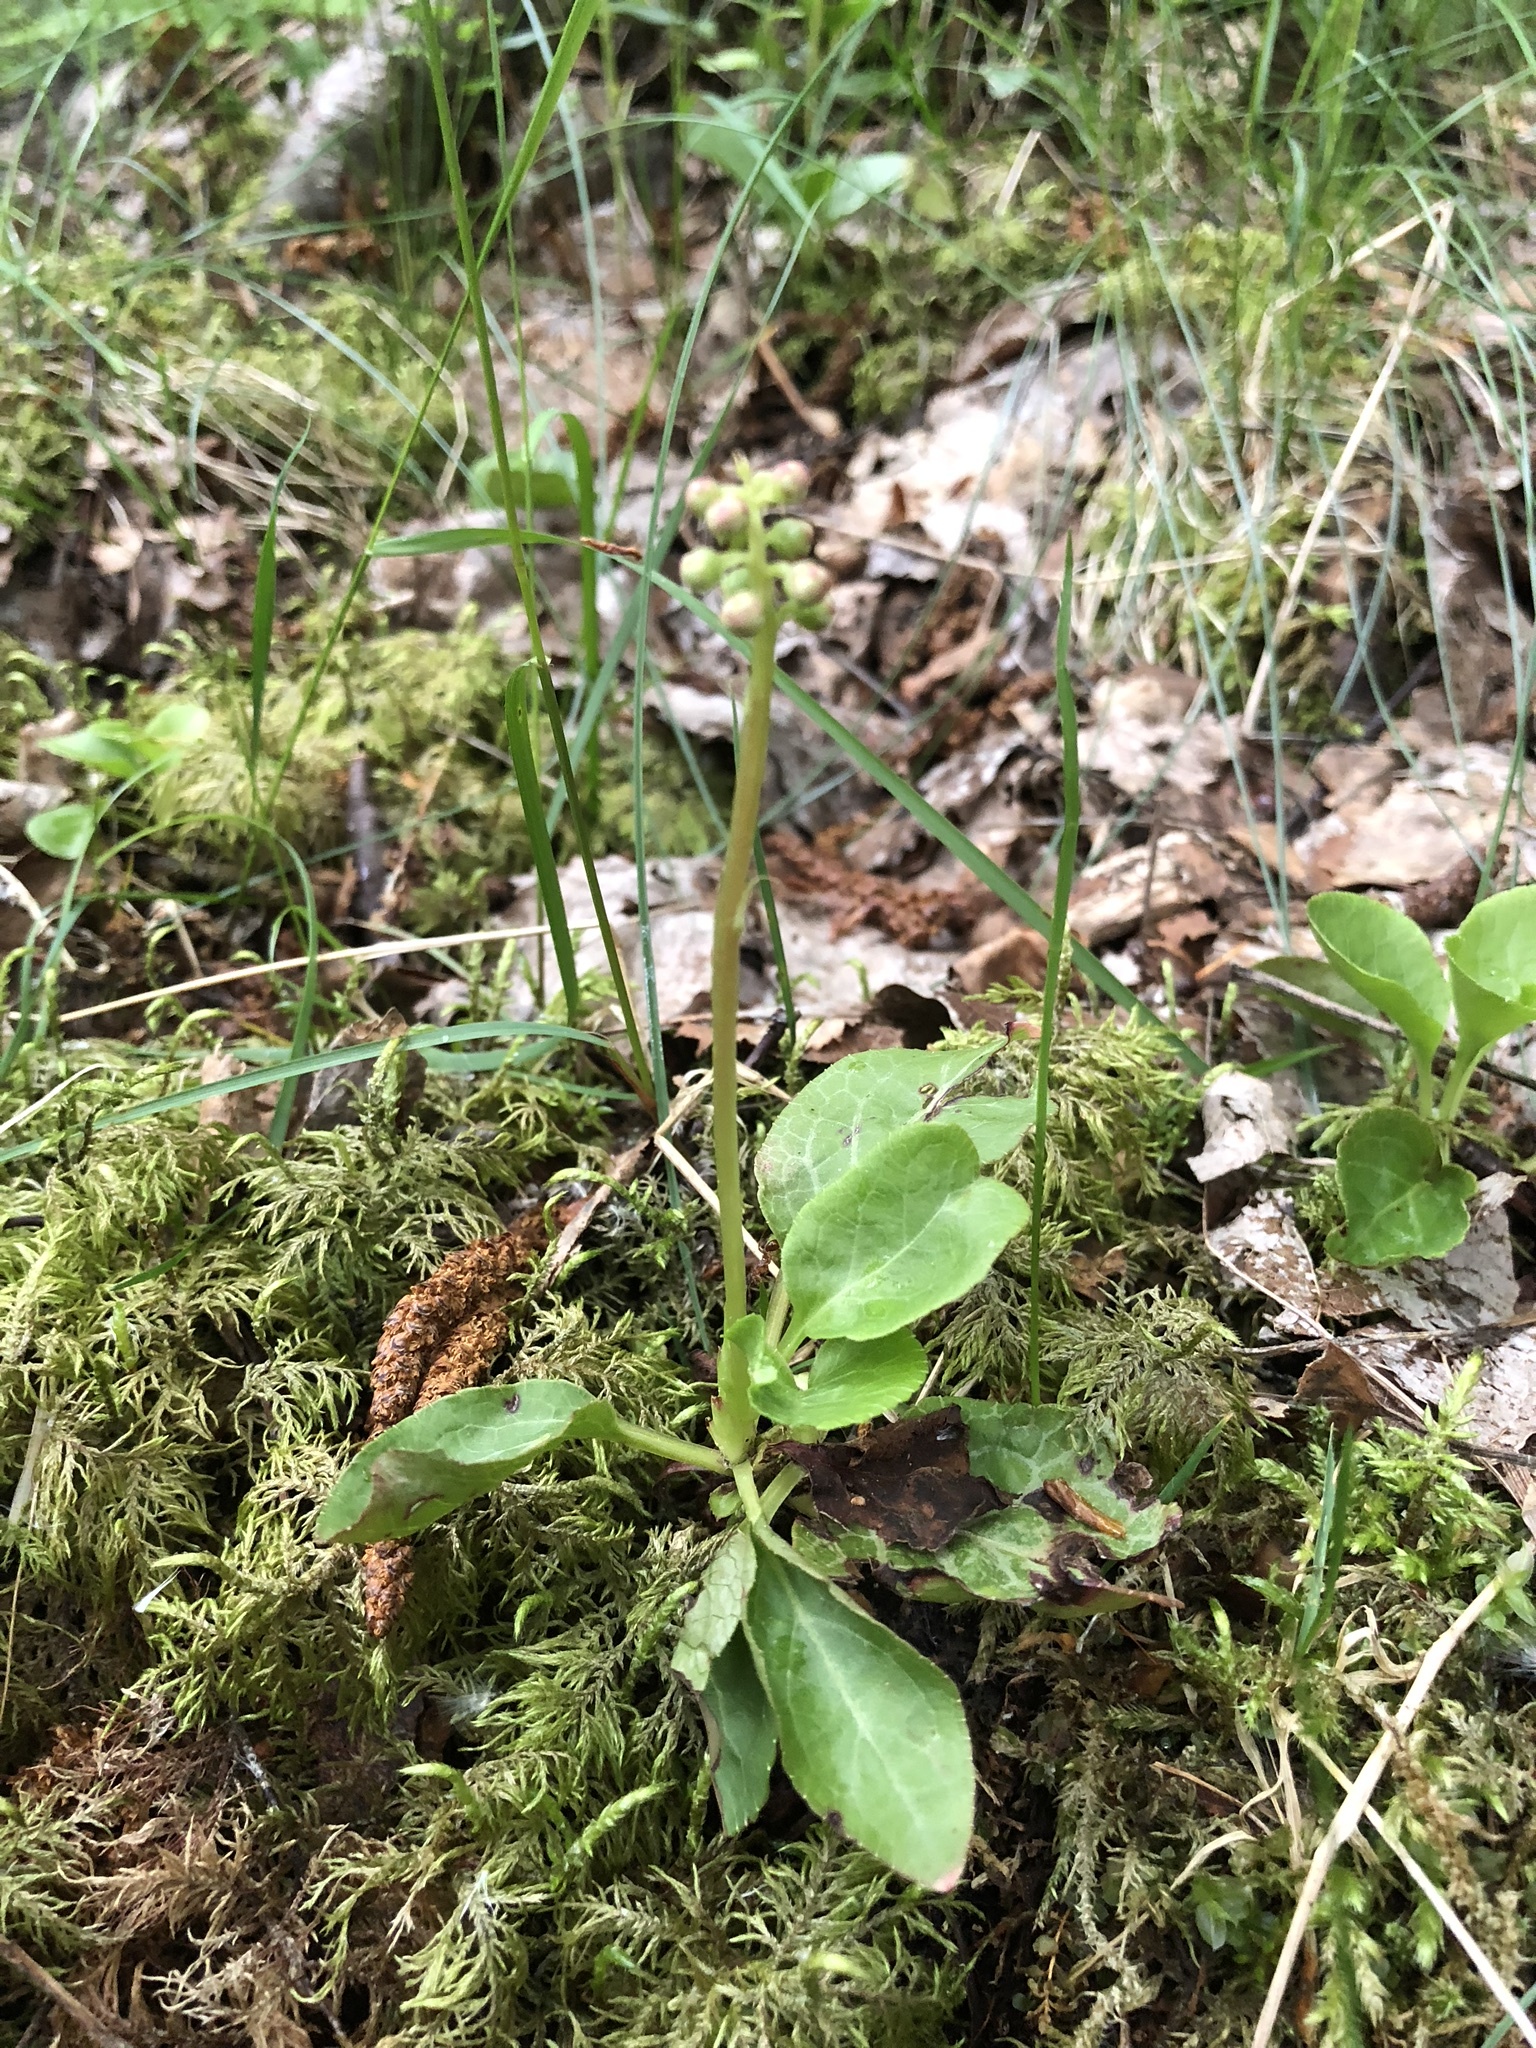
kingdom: Plantae
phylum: Tracheophyta
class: Magnoliopsida
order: Ericales
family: Ericaceae
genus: Pyrola
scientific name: Pyrola minor
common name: Common wintergreen
